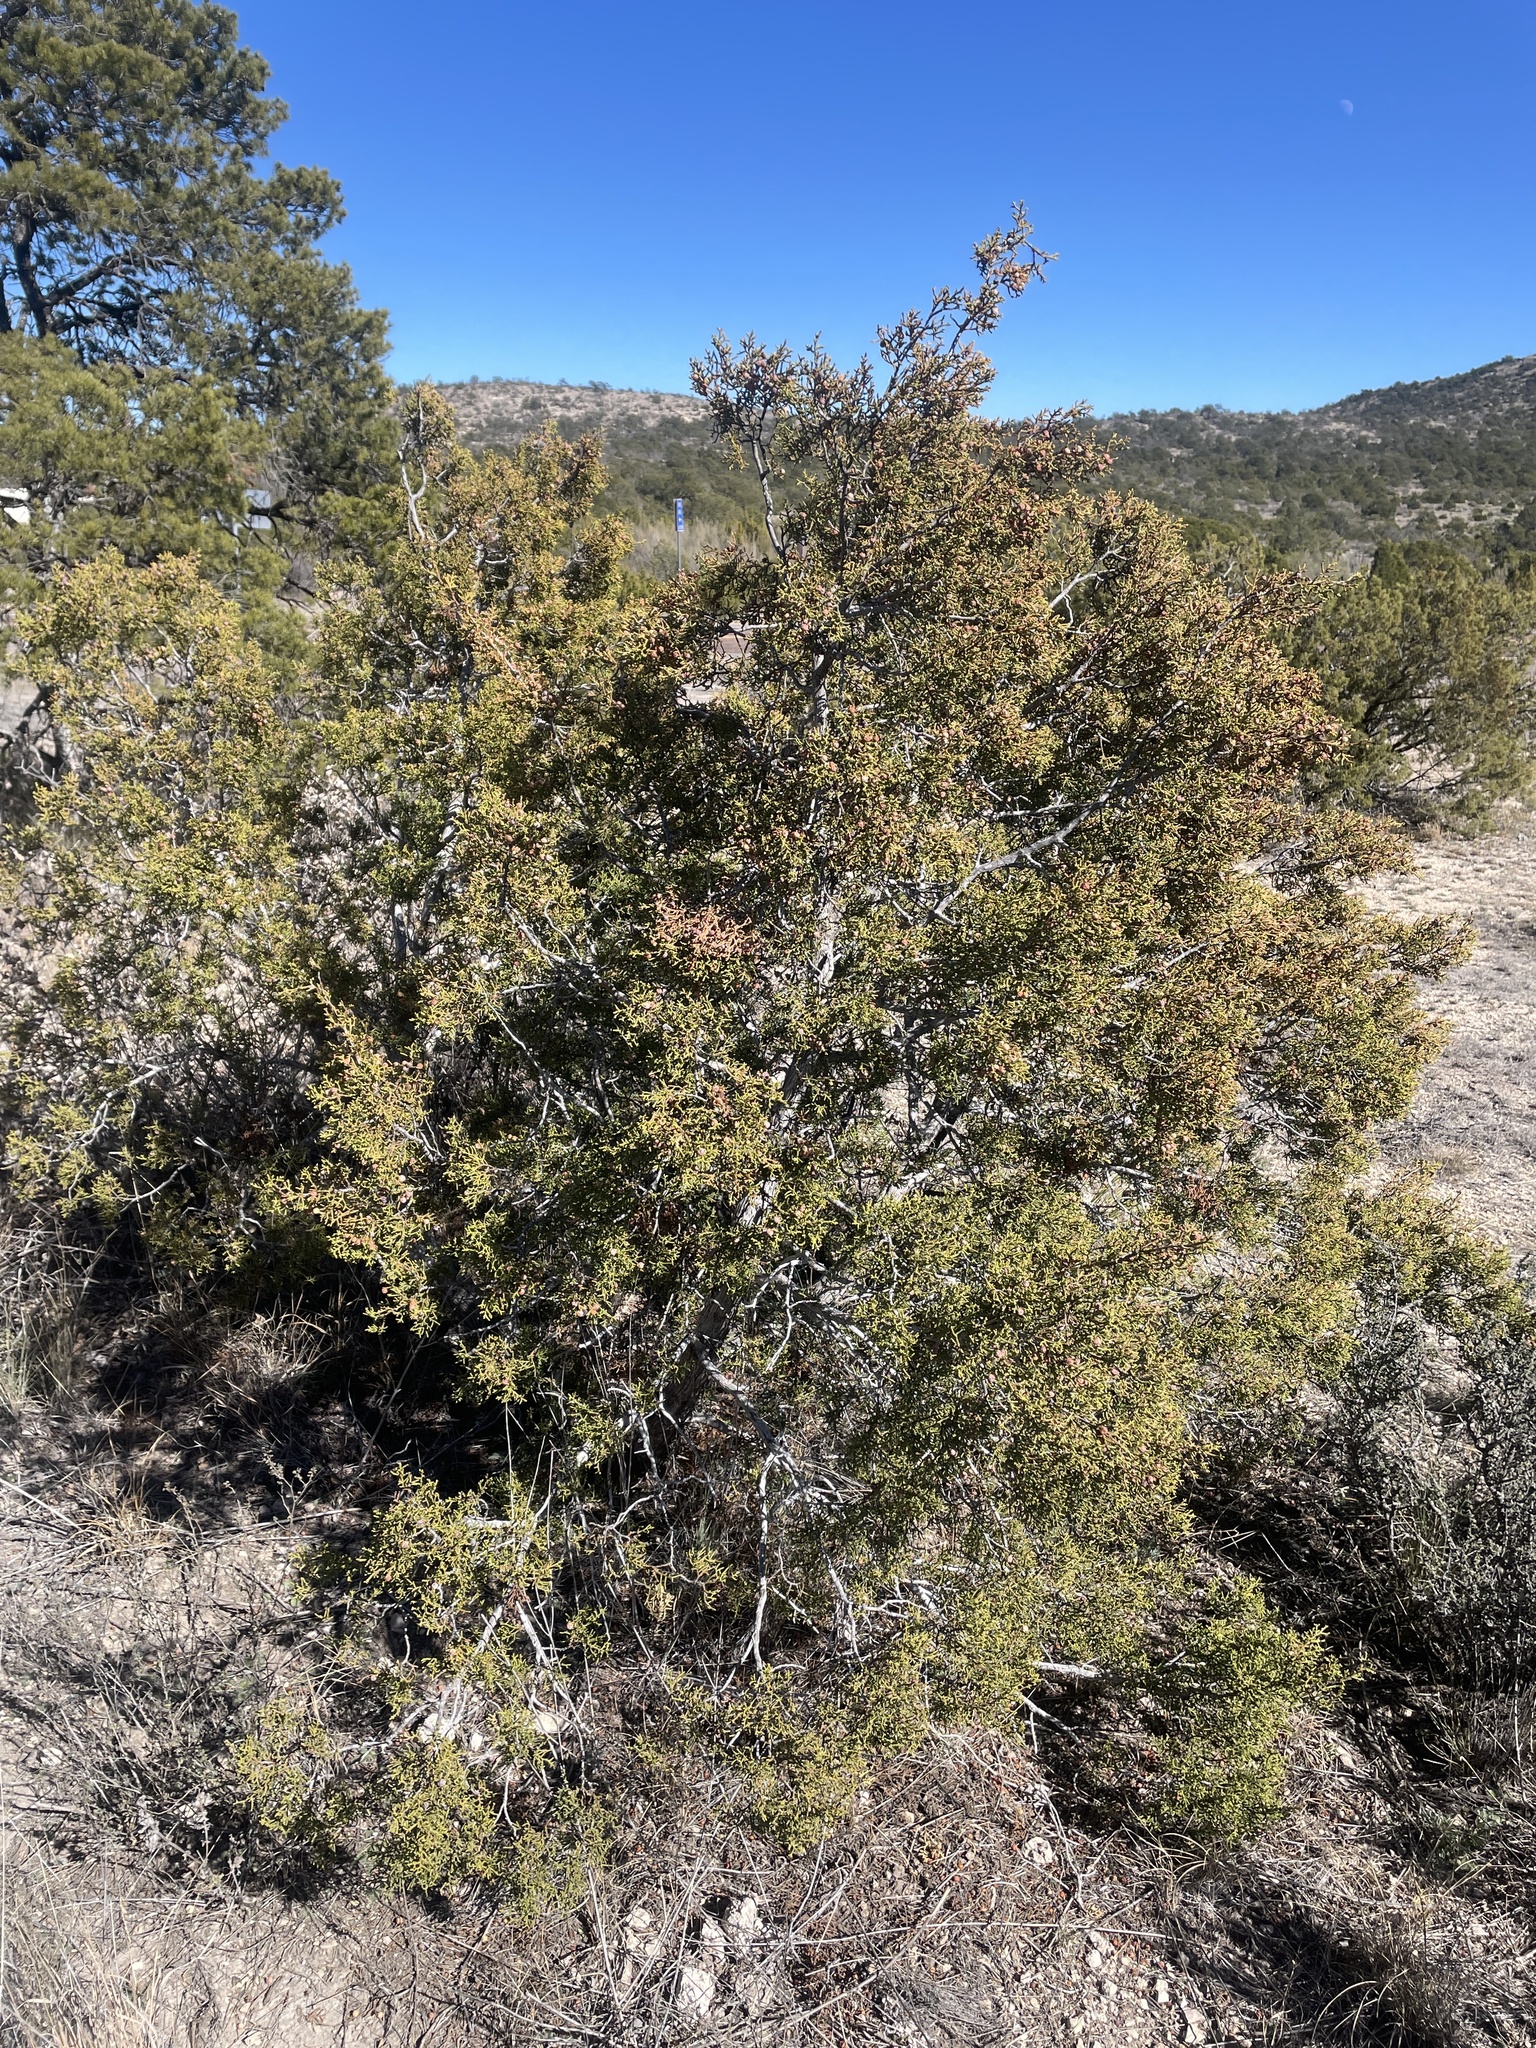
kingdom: Plantae
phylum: Tracheophyta
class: Pinopsida
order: Pinales
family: Cupressaceae
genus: Juniperus
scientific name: Juniperus pinchotii
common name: Pinchot juniper
